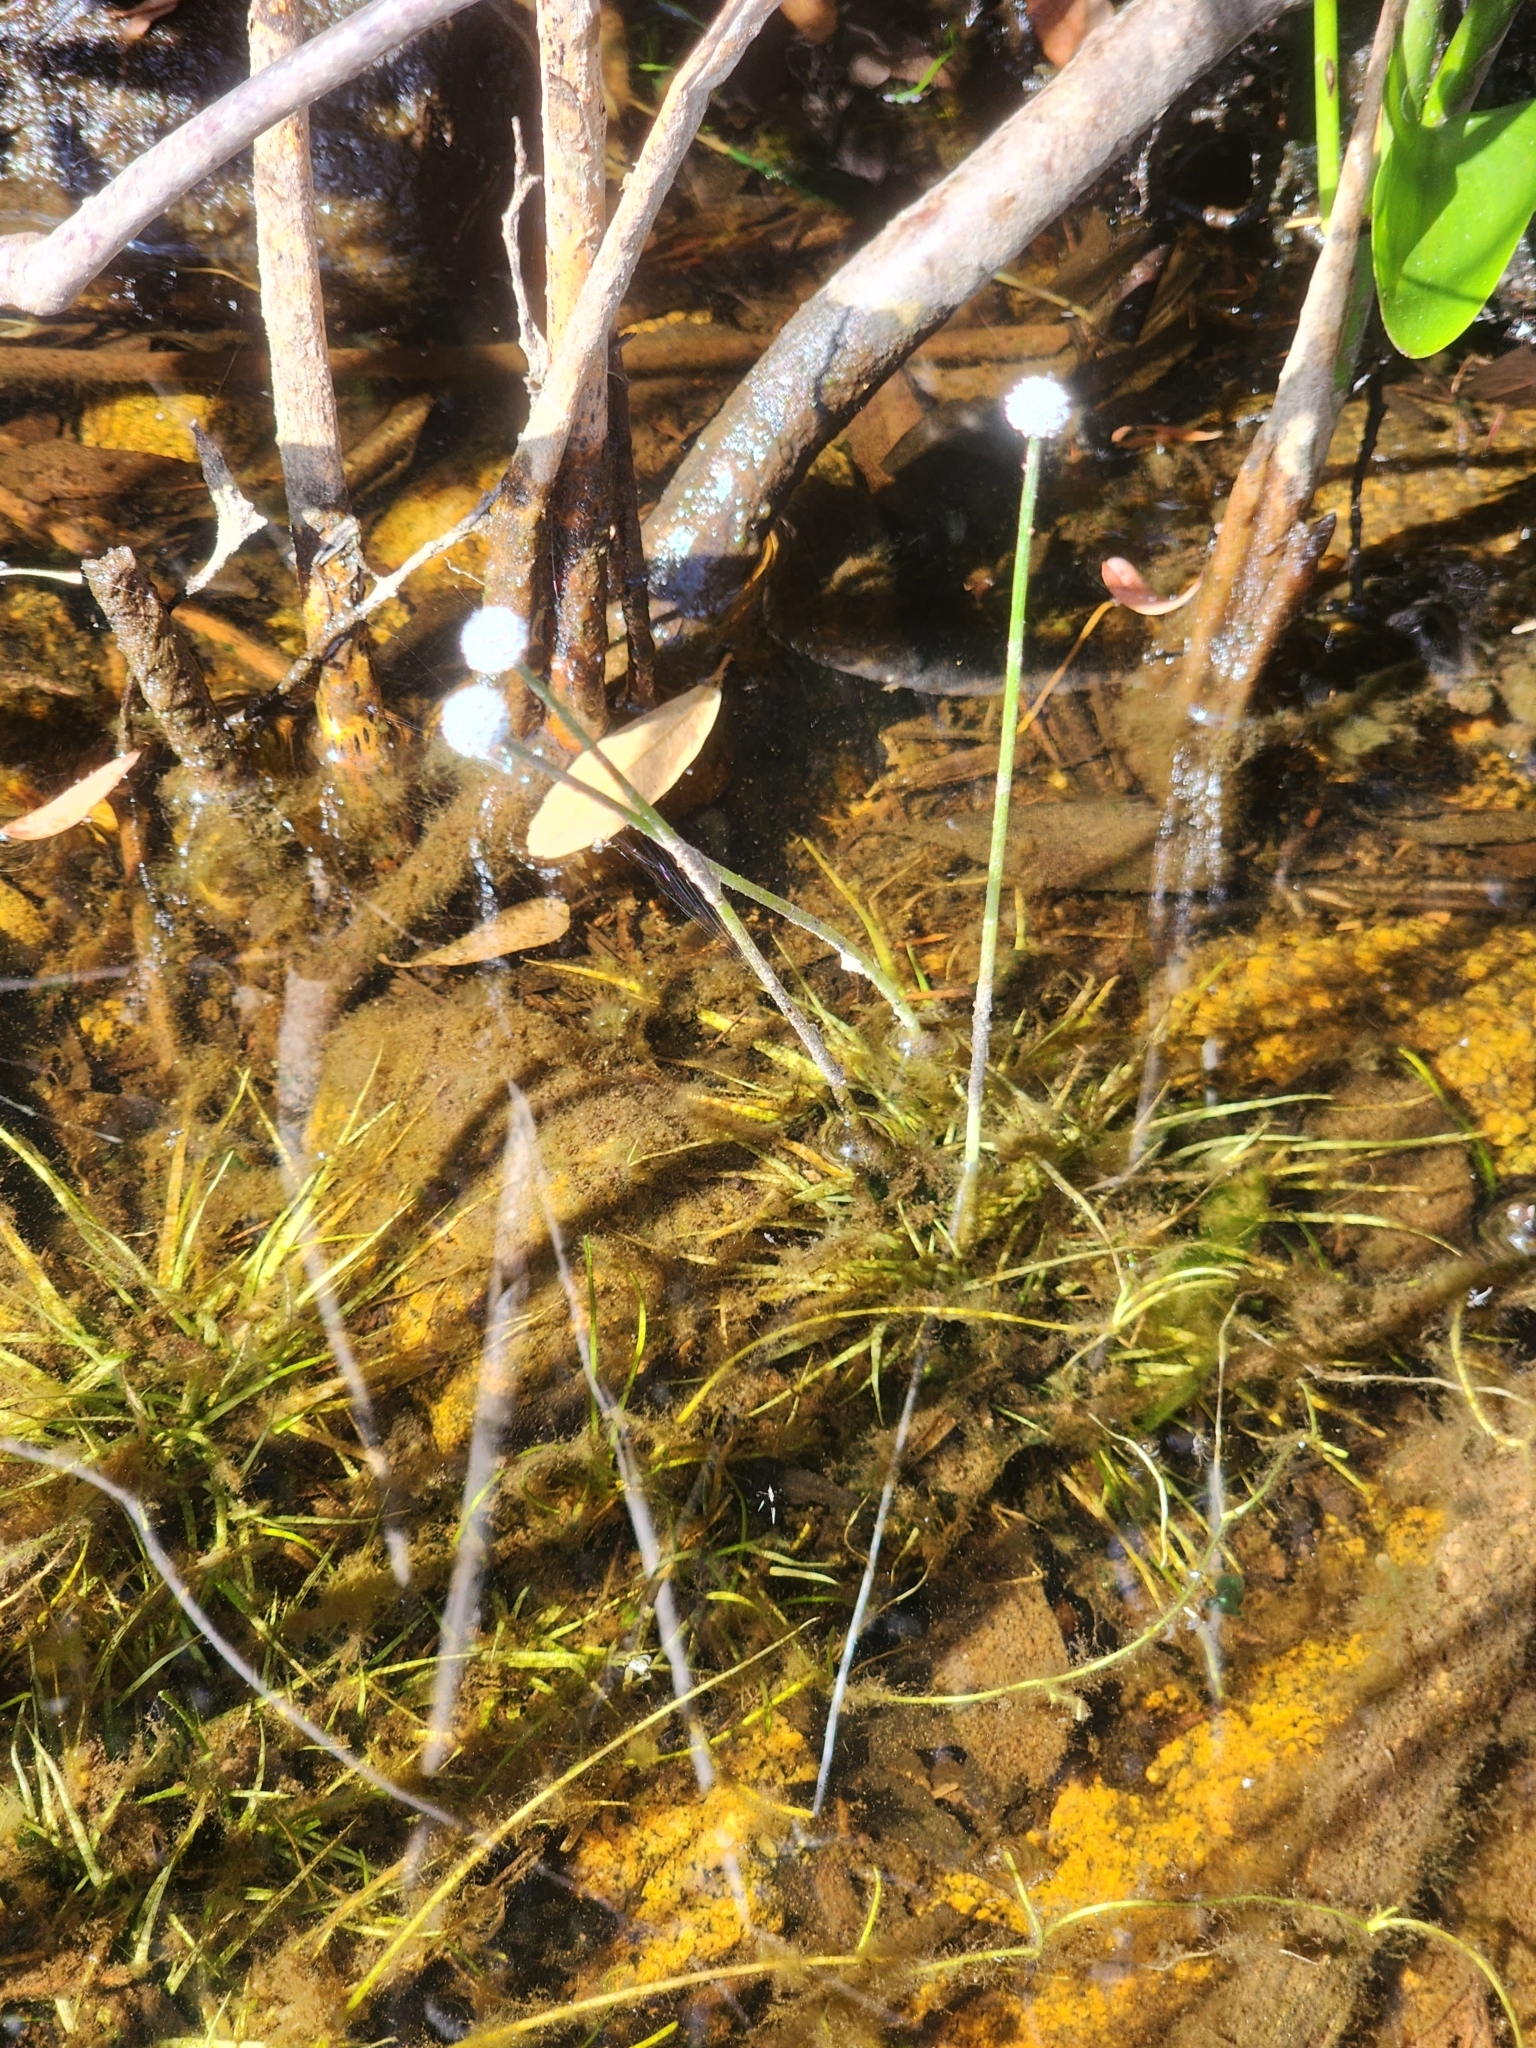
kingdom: Plantae
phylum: Tracheophyta
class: Liliopsida
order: Poales
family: Eriocaulaceae
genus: Eriocaulon
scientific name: Eriocaulon aquaticum
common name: Pipewort
